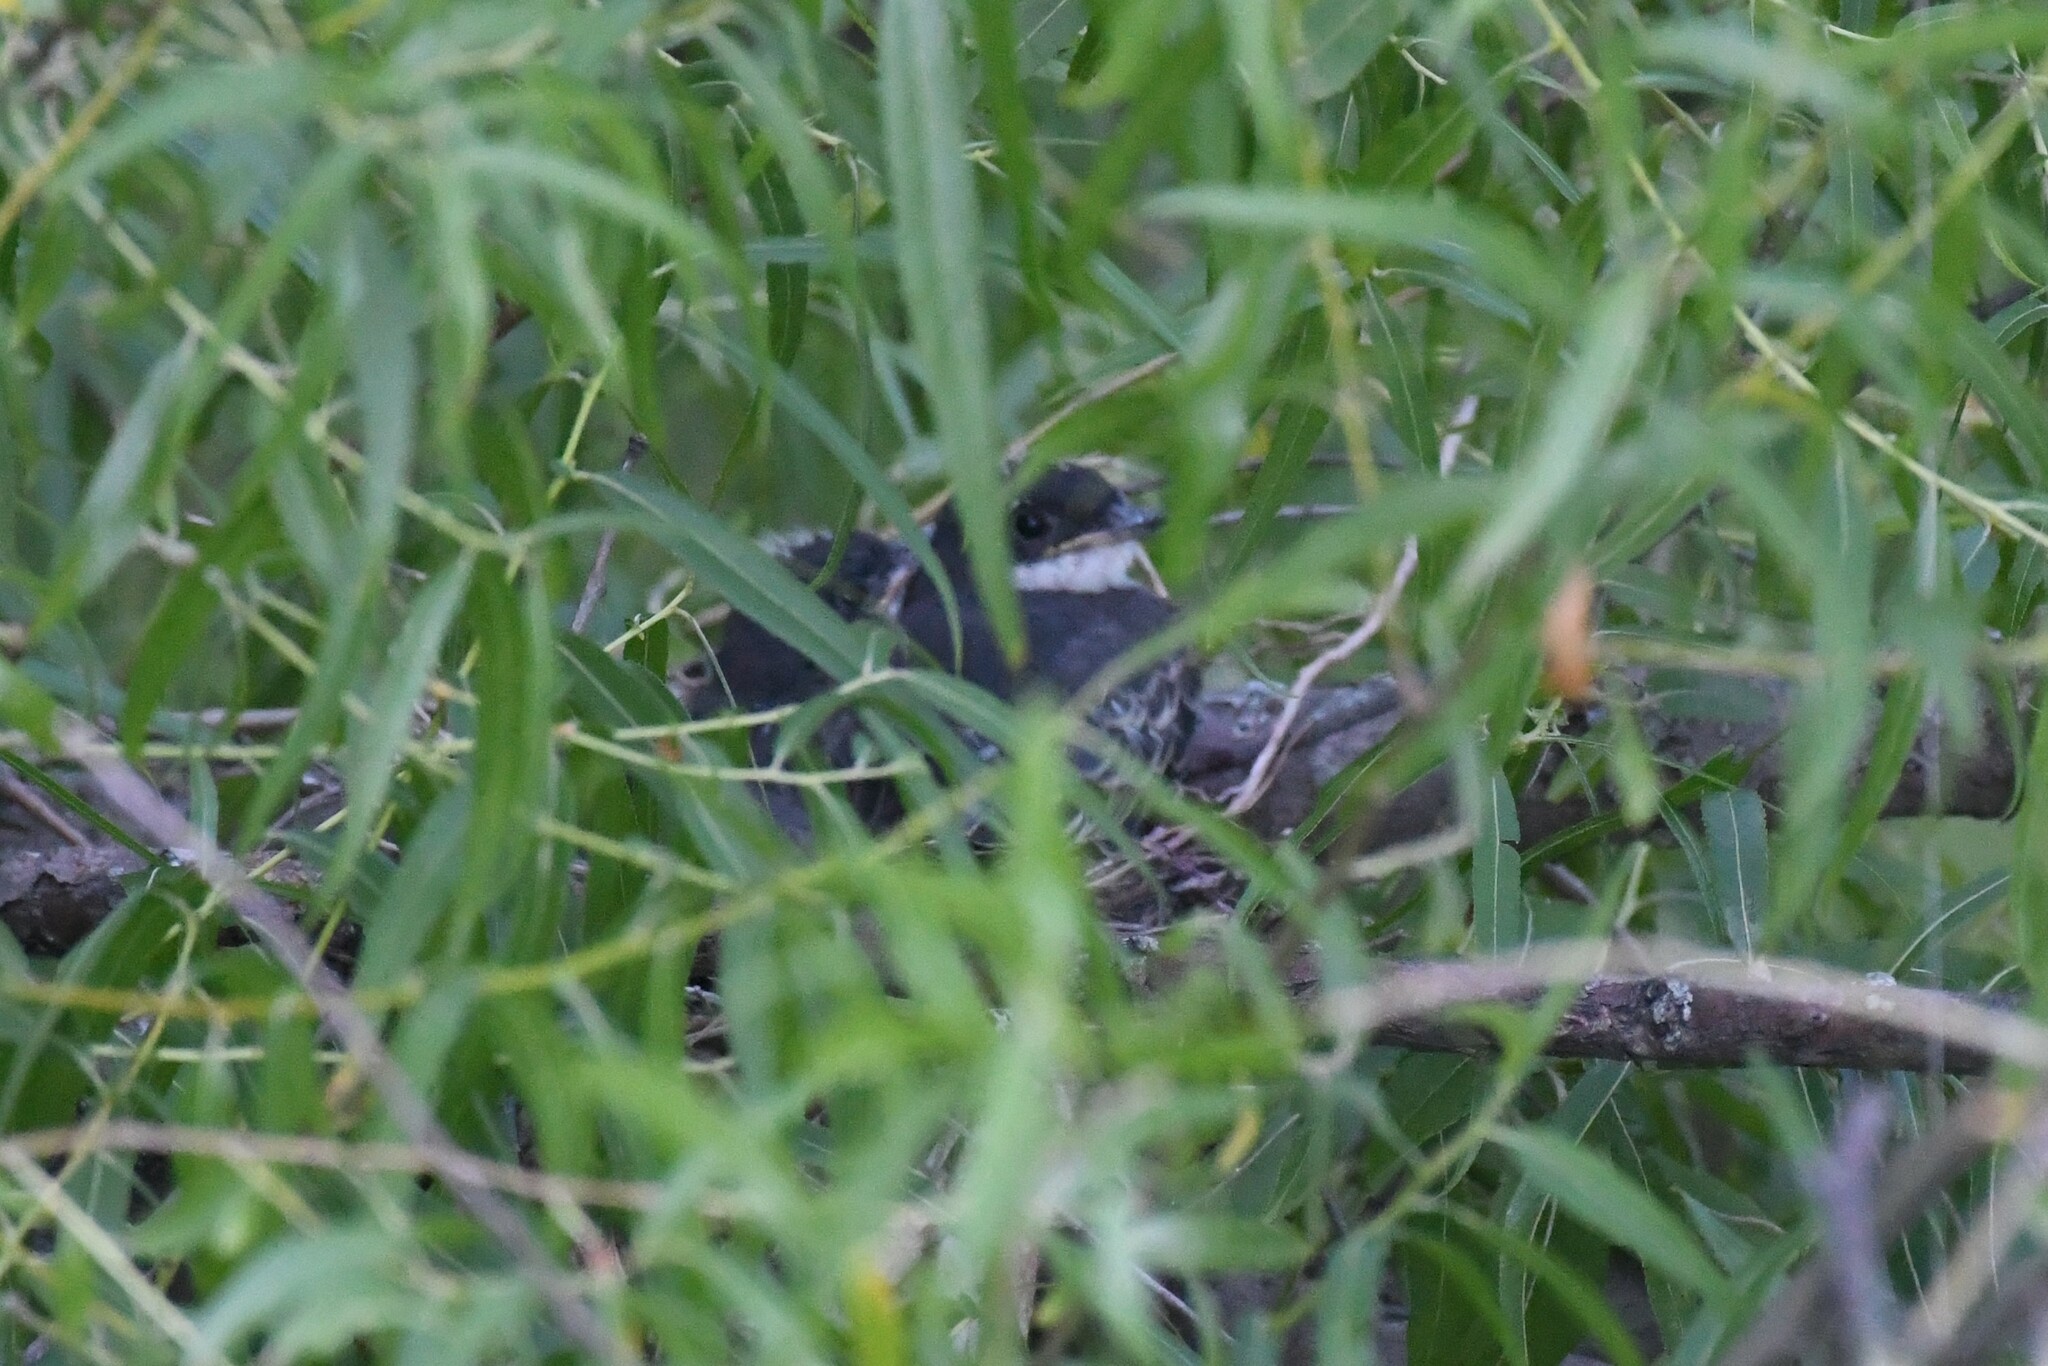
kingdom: Animalia
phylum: Chordata
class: Aves
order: Passeriformes
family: Tyrannidae
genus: Tyrannus
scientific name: Tyrannus tyrannus
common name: Eastern kingbird
